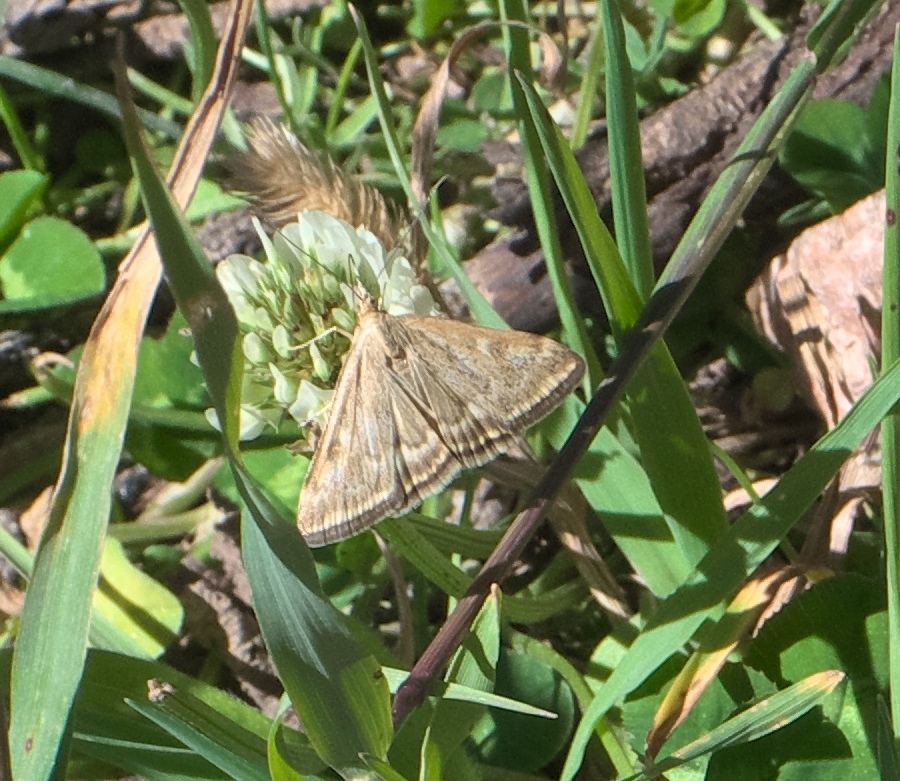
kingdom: Animalia
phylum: Arthropoda
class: Insecta
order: Lepidoptera
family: Crambidae
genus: Loxostege
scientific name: Loxostege
